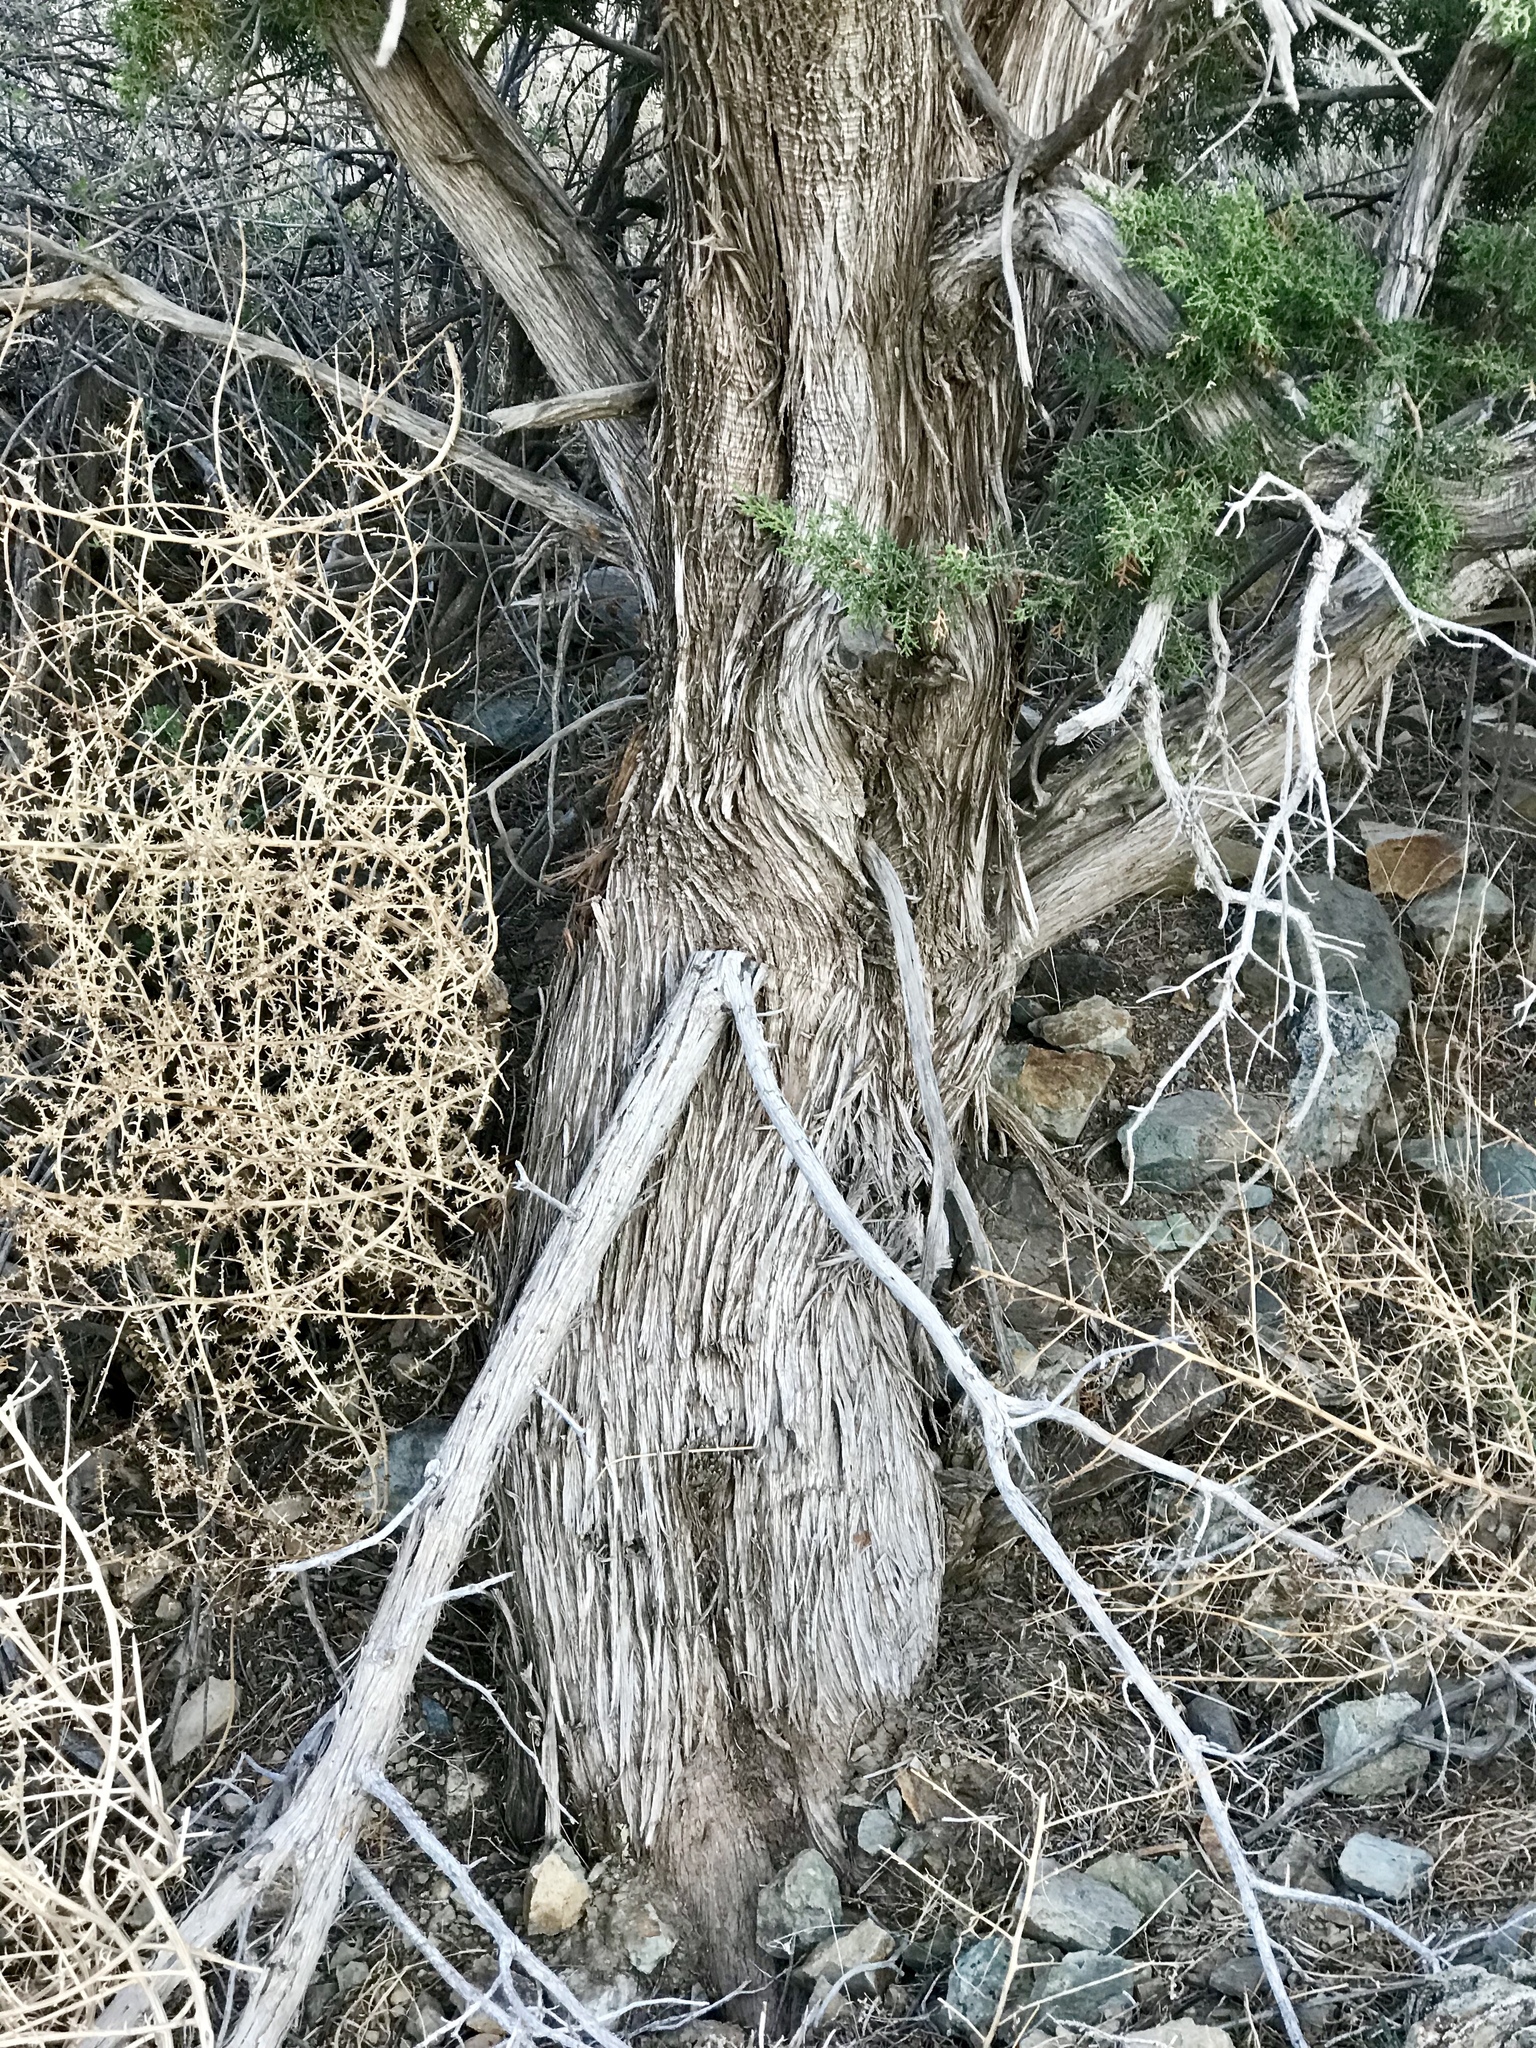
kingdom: Plantae
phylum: Tracheophyta
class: Pinopsida
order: Pinales
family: Cupressaceae
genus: Juniperus
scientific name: Juniperus monosperma
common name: One-seed juniper
